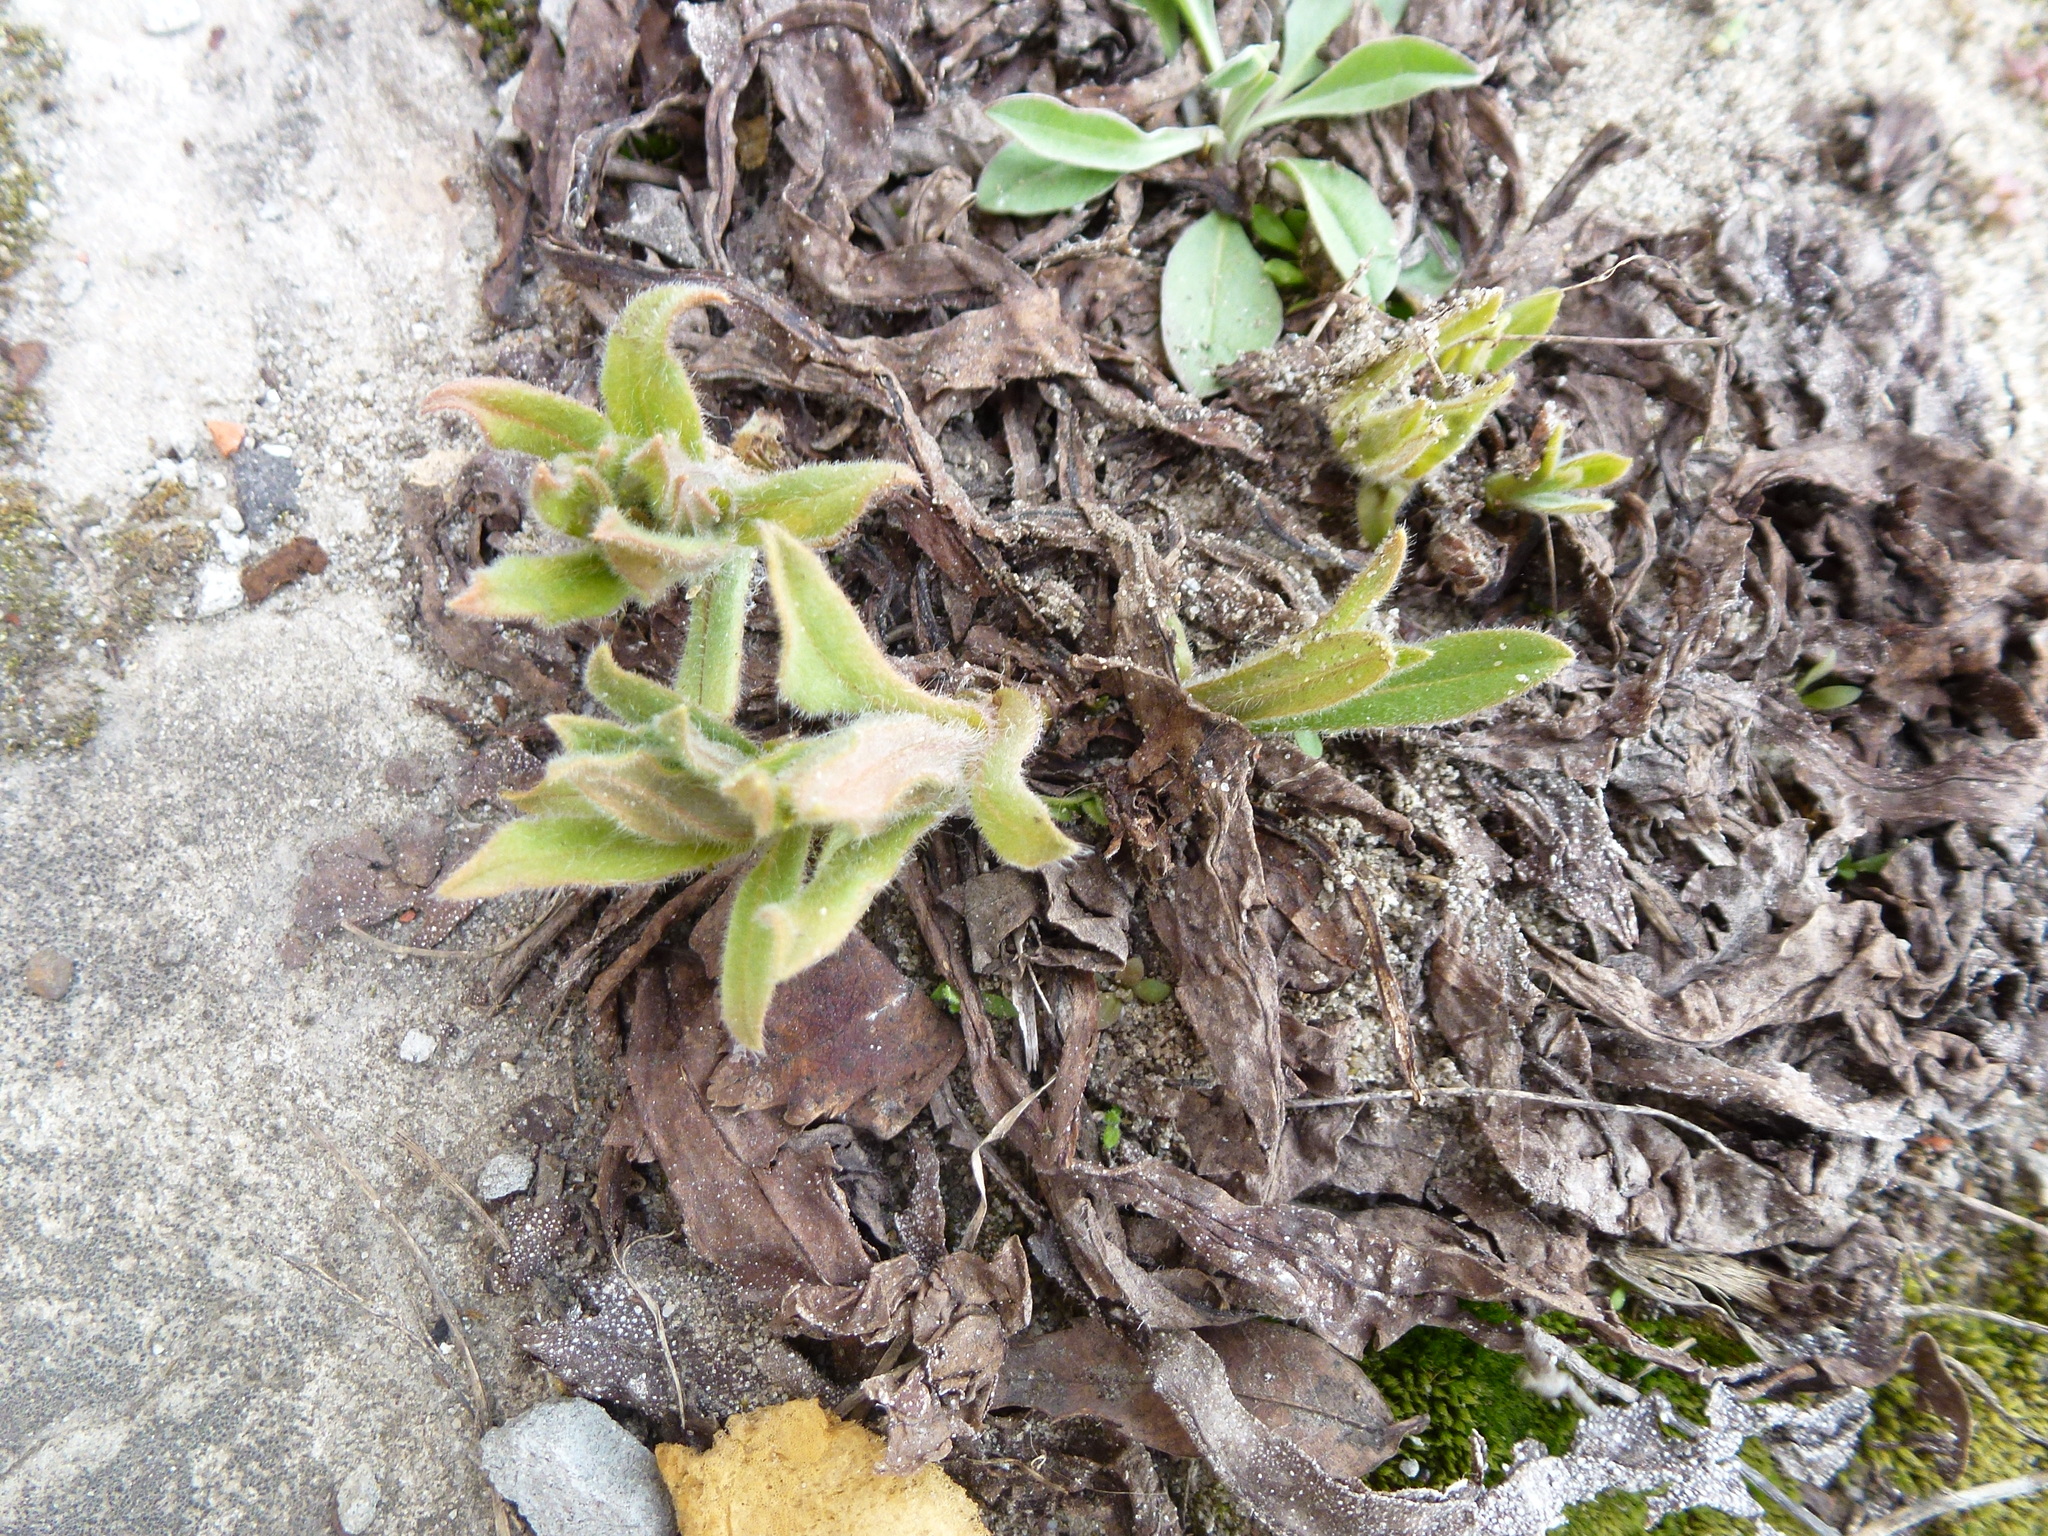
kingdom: Plantae
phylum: Tracheophyta
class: Magnoliopsida
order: Boraginales
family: Boraginaceae
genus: Nonea
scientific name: Nonea pulla
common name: Brown nonea
